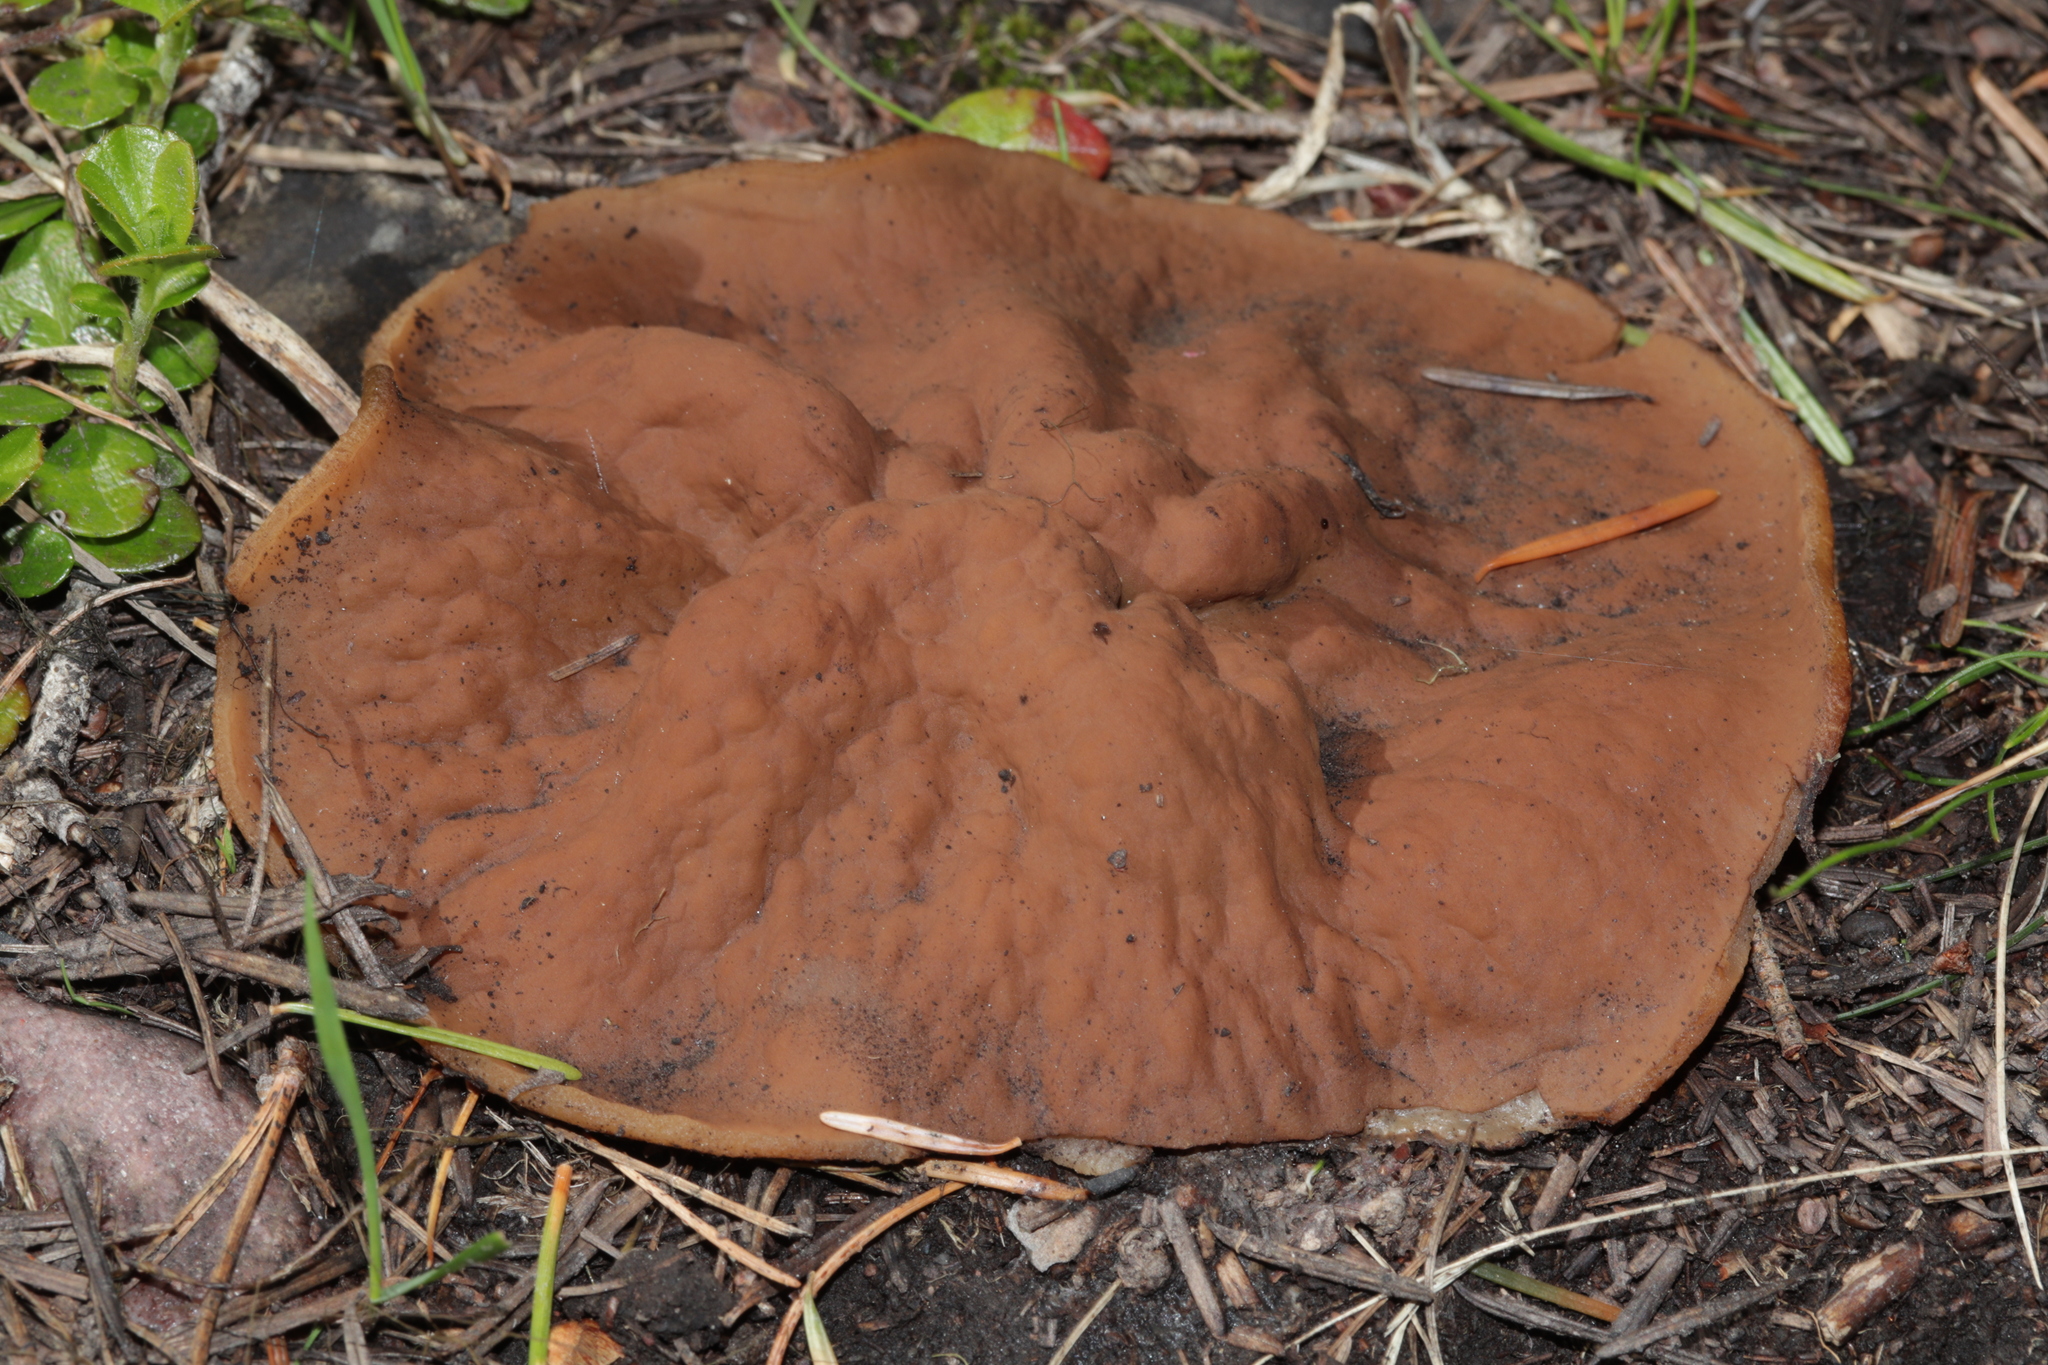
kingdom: Fungi
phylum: Ascomycota
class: Pezizomycetes
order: Pezizales
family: Discinaceae
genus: Discina
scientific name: Discina ancilis
